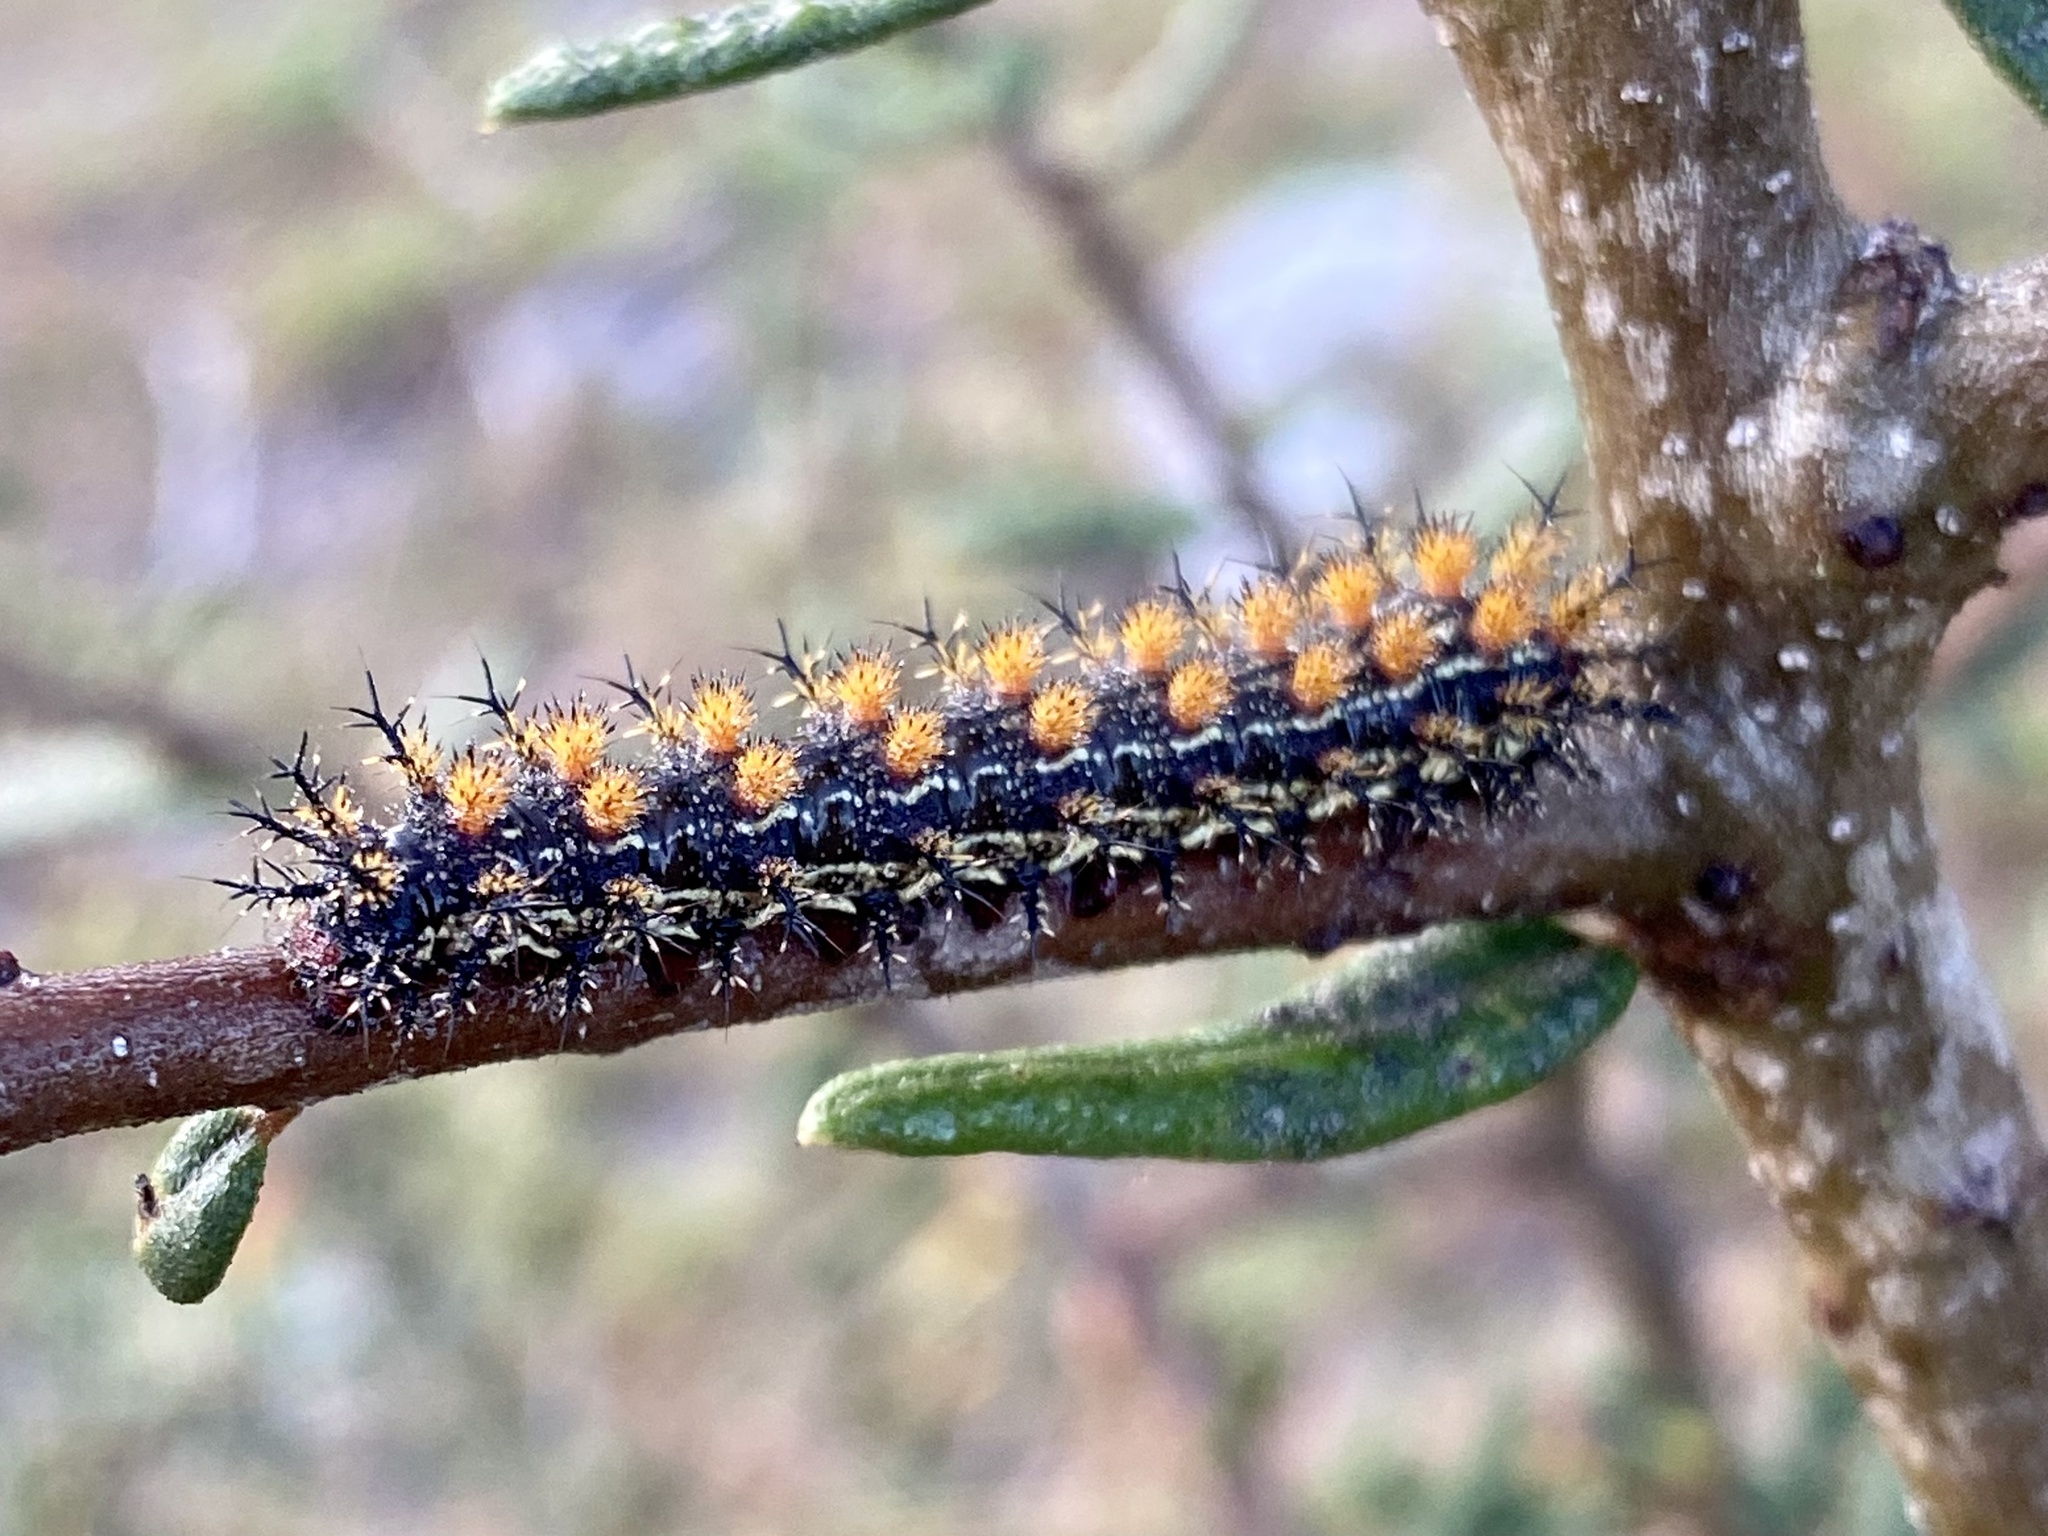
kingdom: Animalia
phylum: Arthropoda
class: Insecta
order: Lepidoptera
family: Saturniidae
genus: Hemileuca
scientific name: Hemileuca maia
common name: Eastern buckmoth
